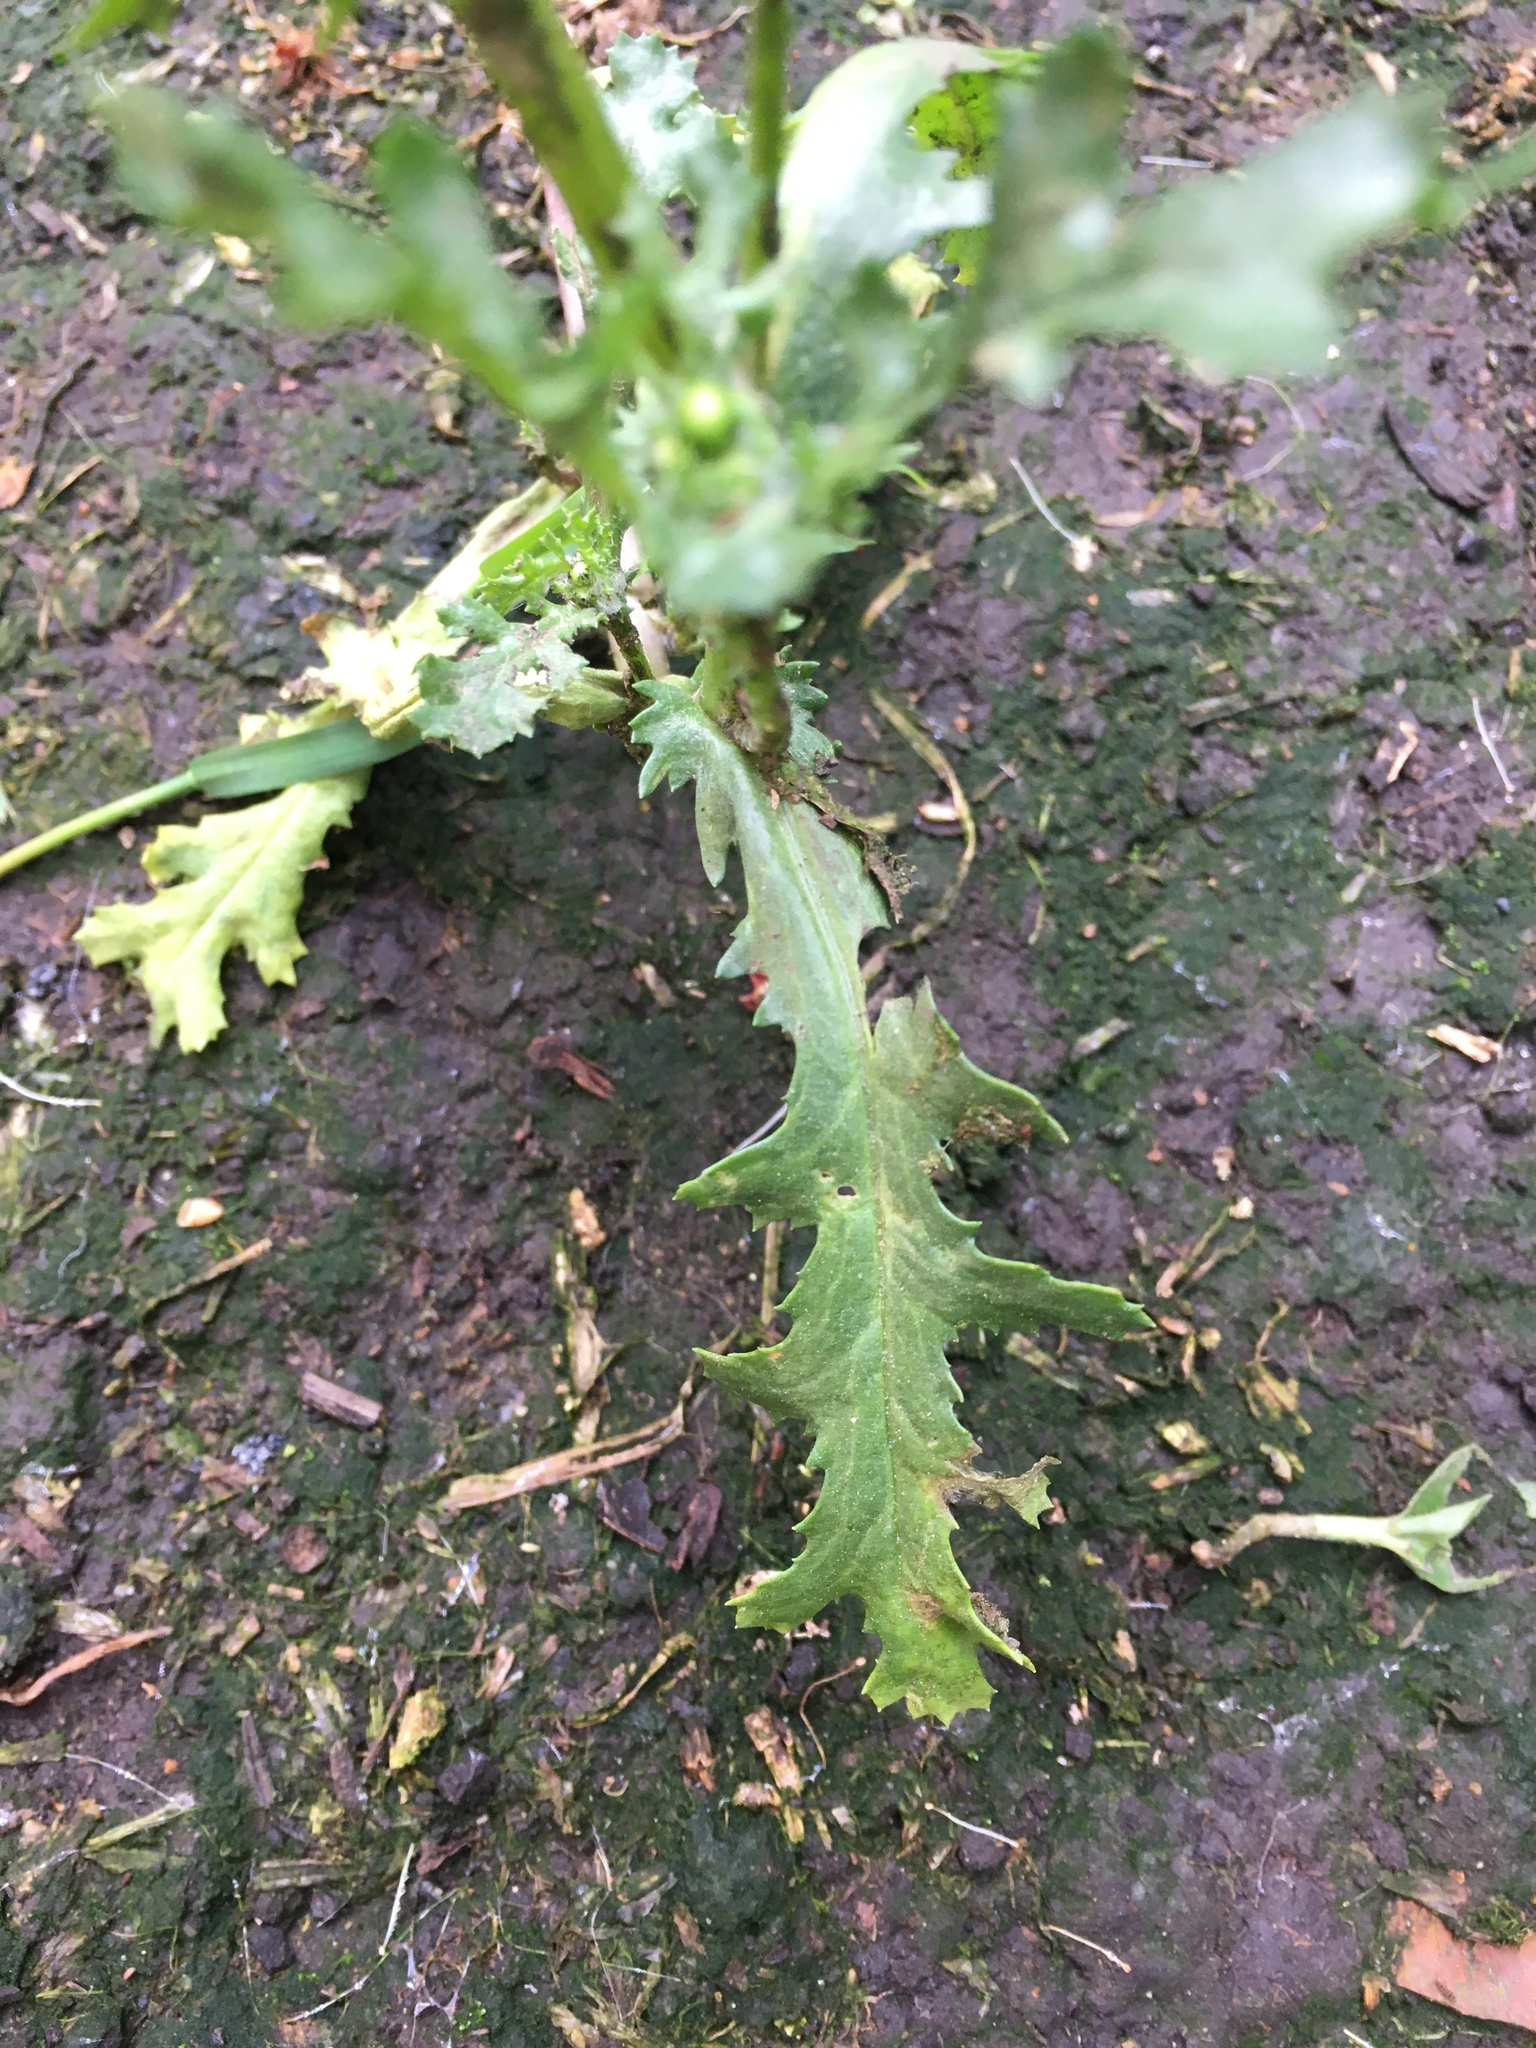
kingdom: Plantae
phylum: Tracheophyta
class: Magnoliopsida
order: Asterales
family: Asteraceae
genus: Senecio
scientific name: Senecio vulgaris
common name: Old-man-in-the-spring
